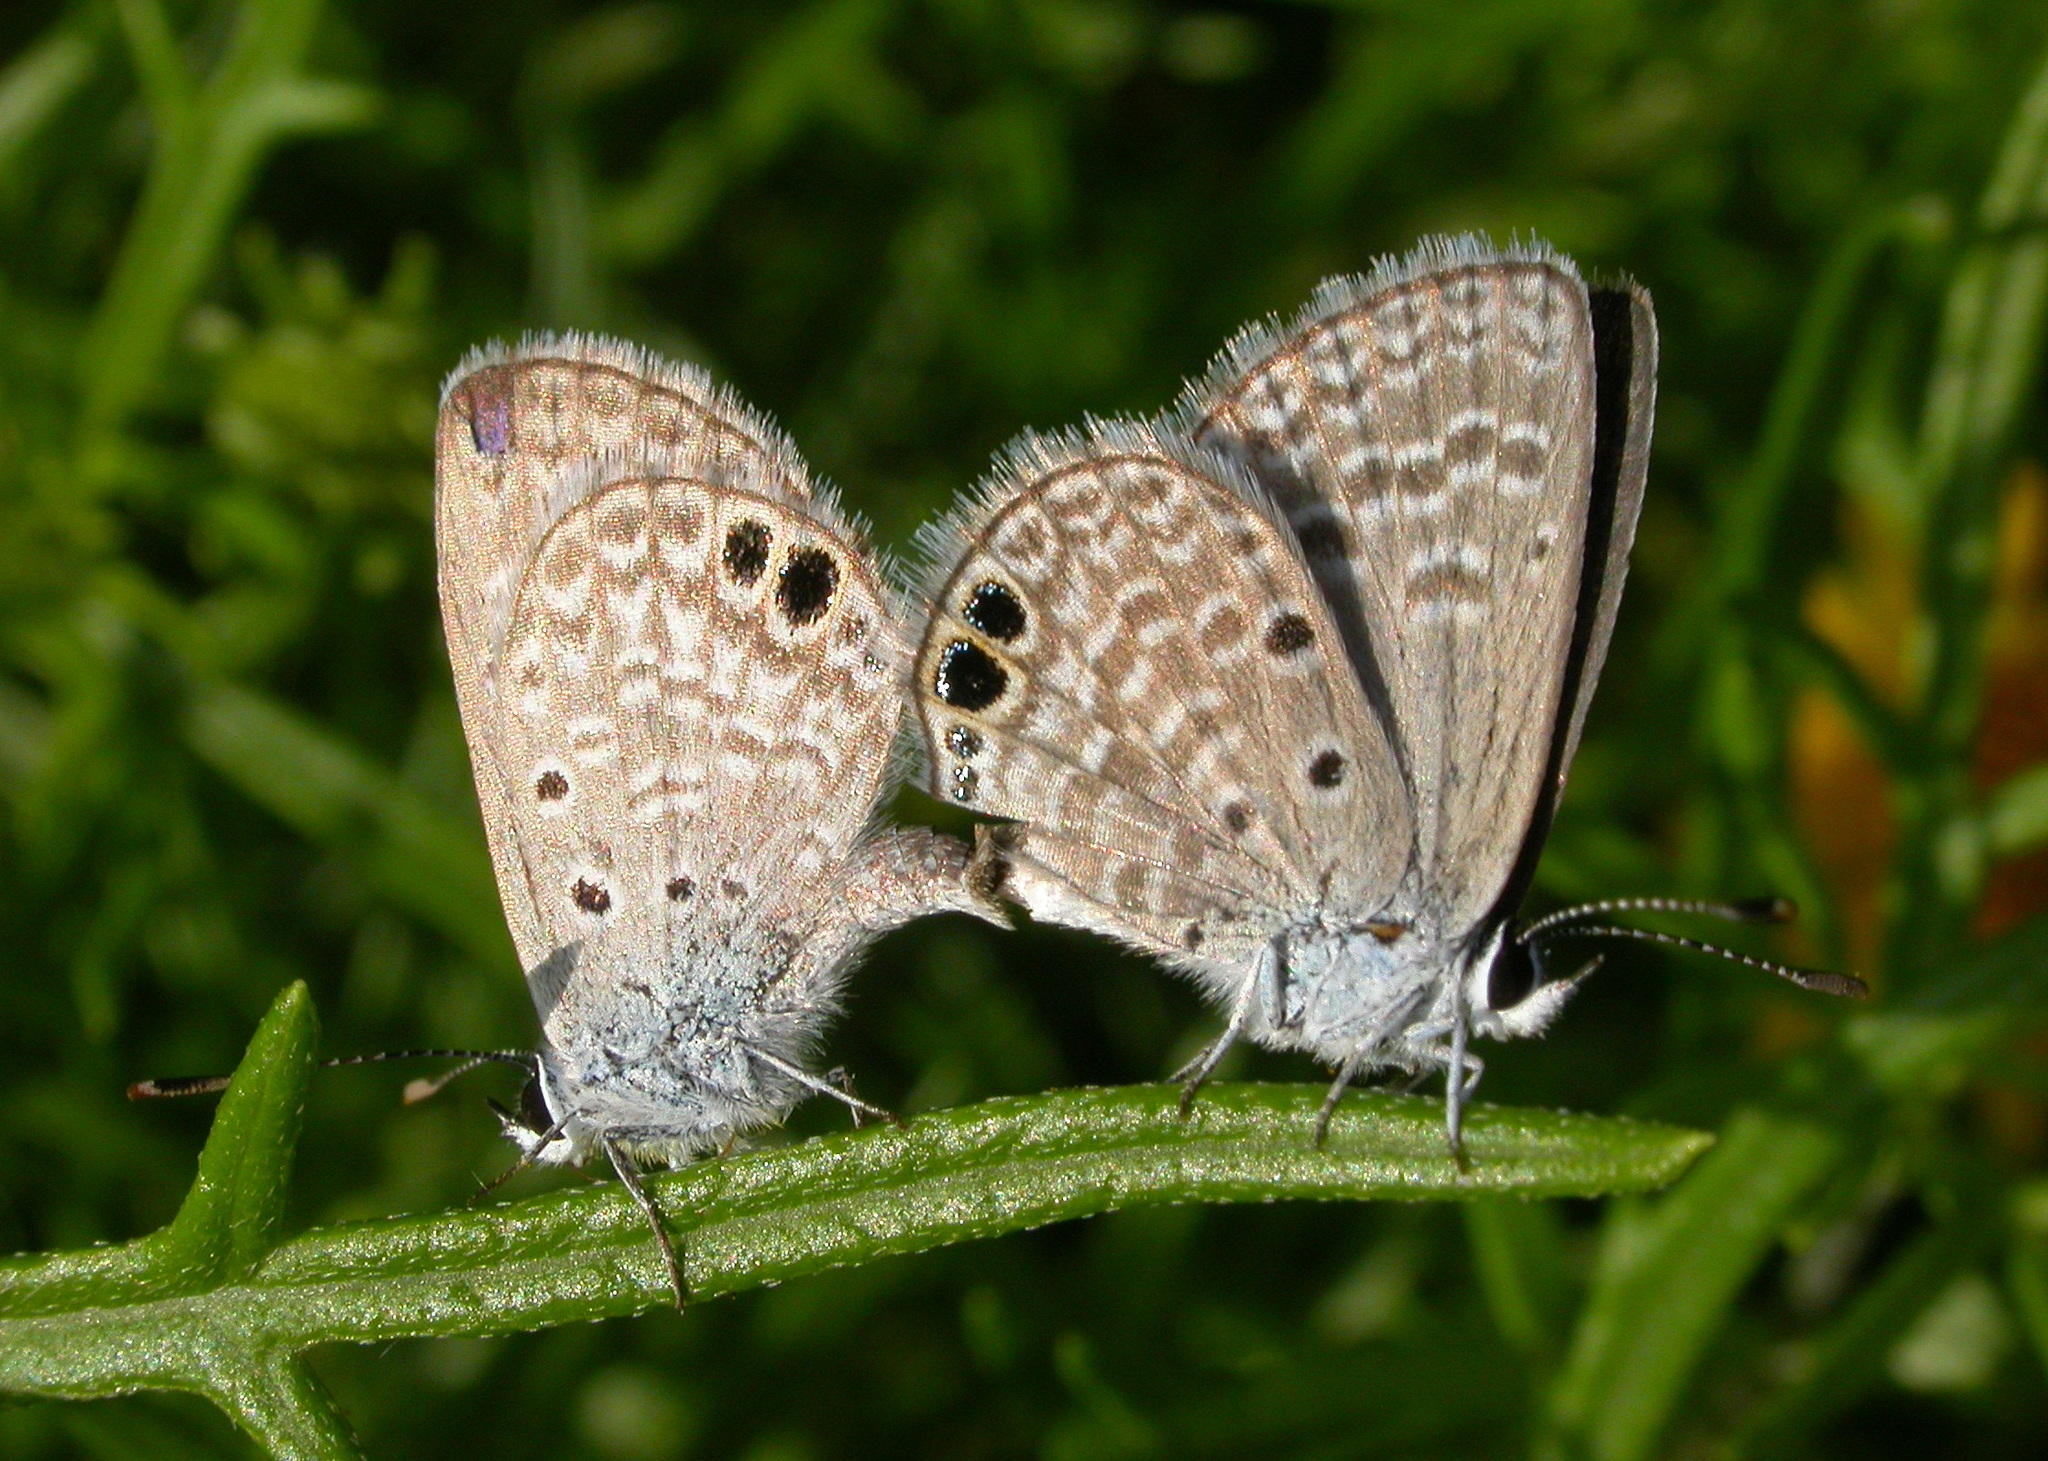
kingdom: Animalia
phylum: Arthropoda
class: Insecta
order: Lepidoptera
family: Lycaenidae
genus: Hemiargus
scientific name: Hemiargus ceraunus
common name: Ceraunus blue
